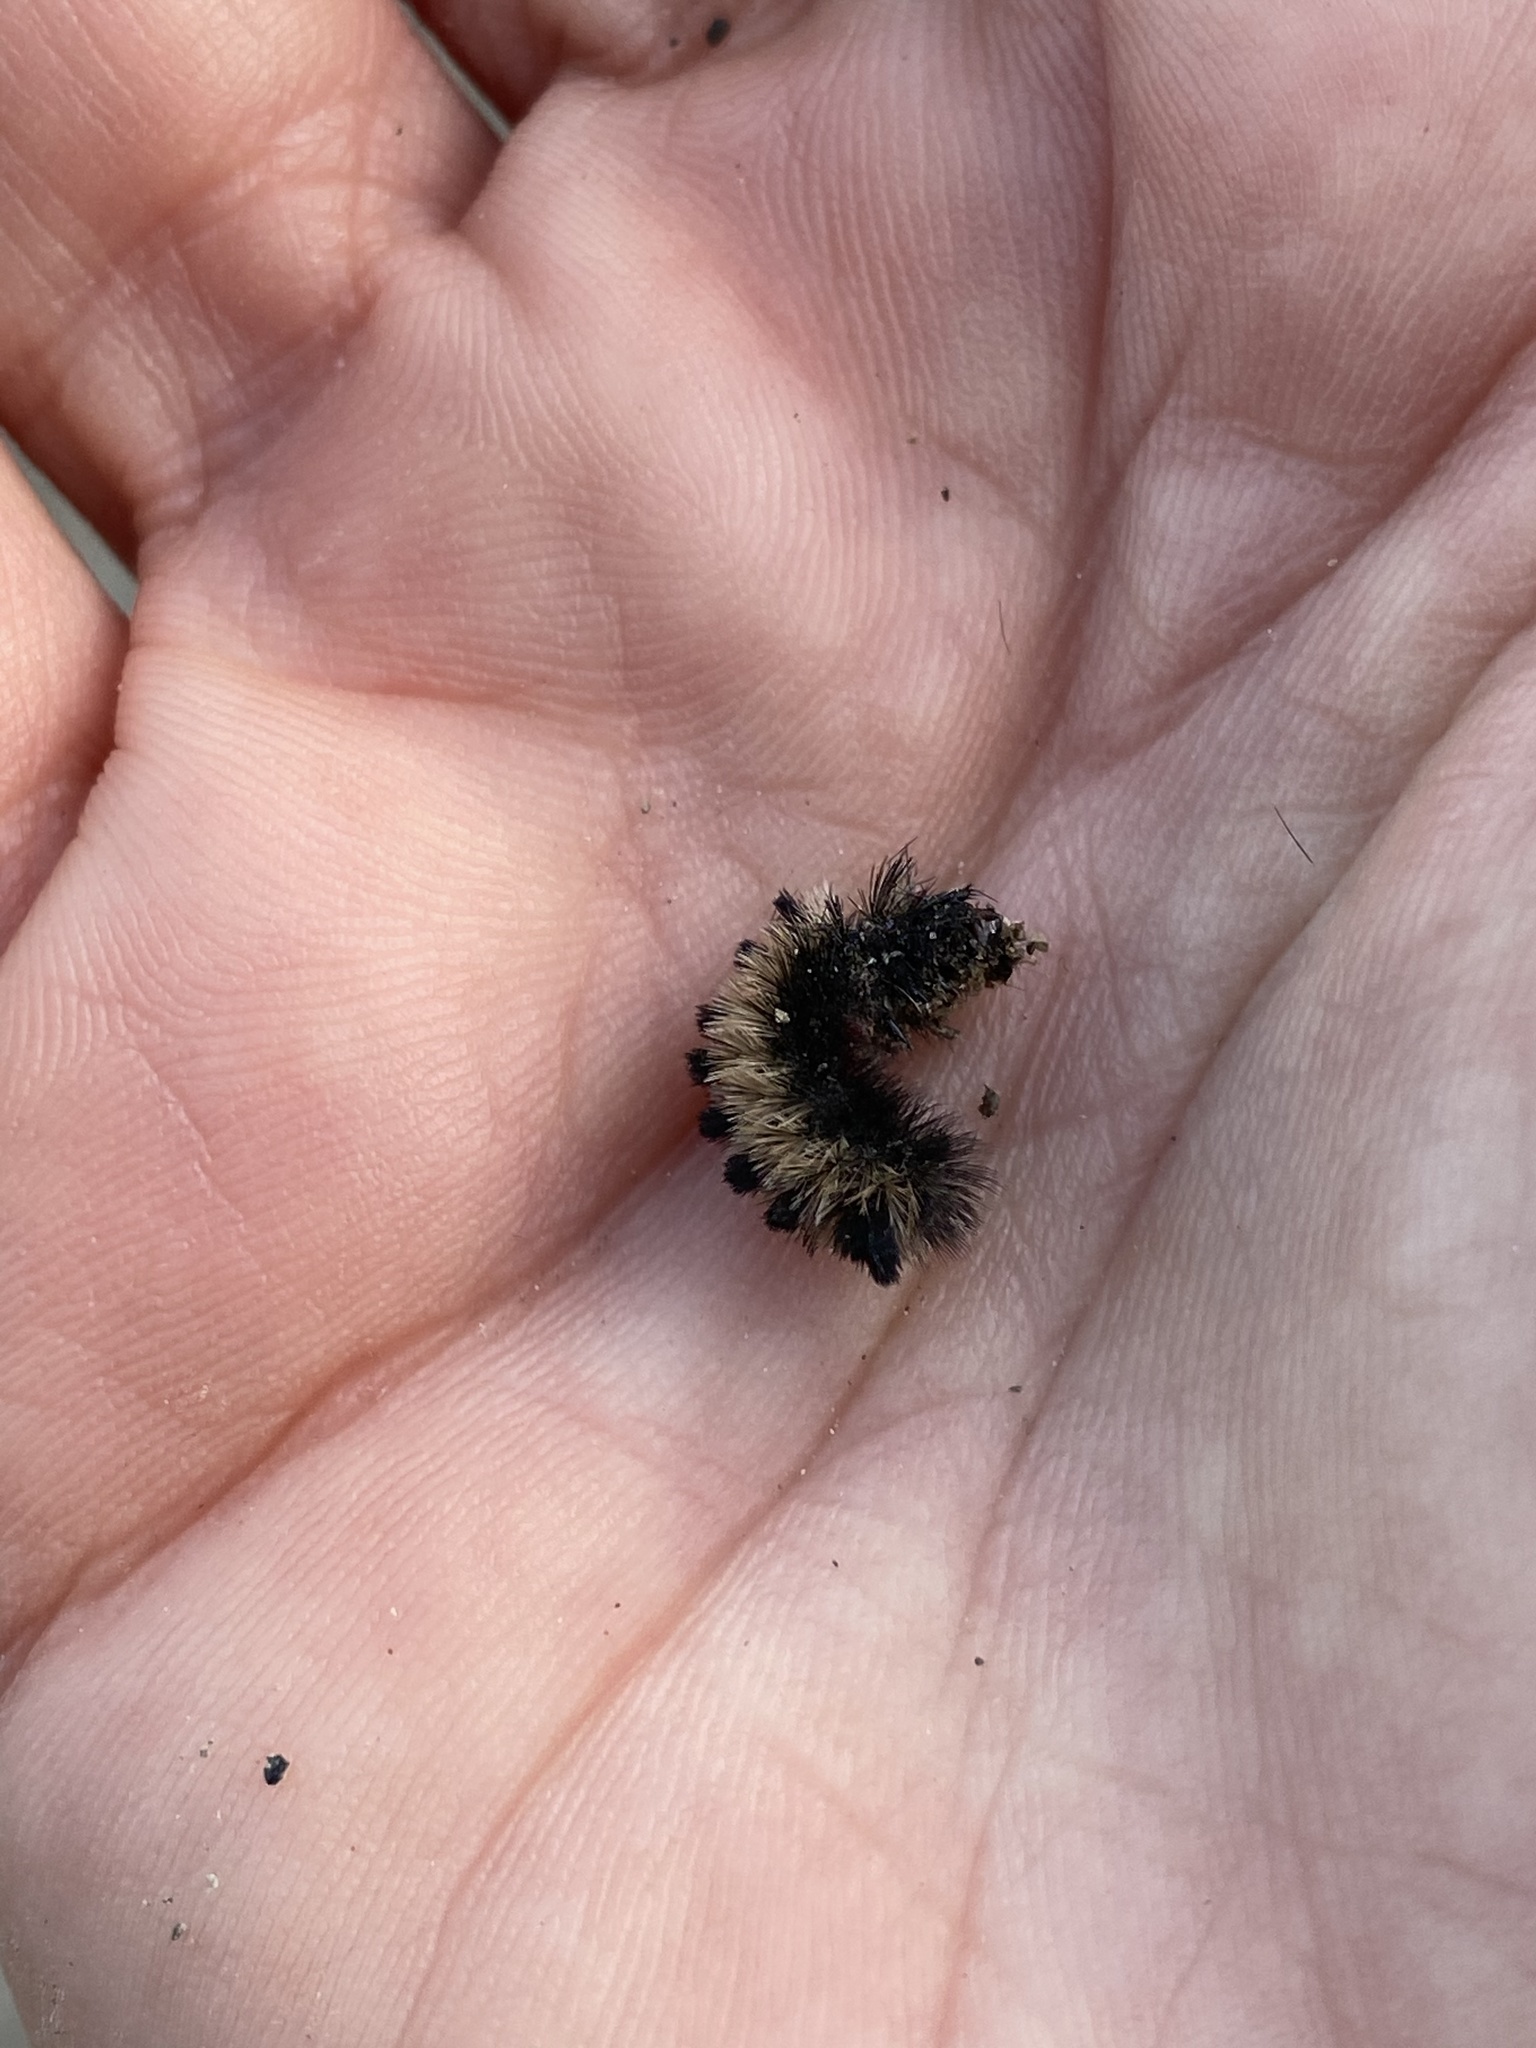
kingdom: Animalia
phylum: Arthropoda
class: Insecta
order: Lepidoptera
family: Erebidae
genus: Ctenucha
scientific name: Ctenucha virginica
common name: Virginia ctenucha moth
